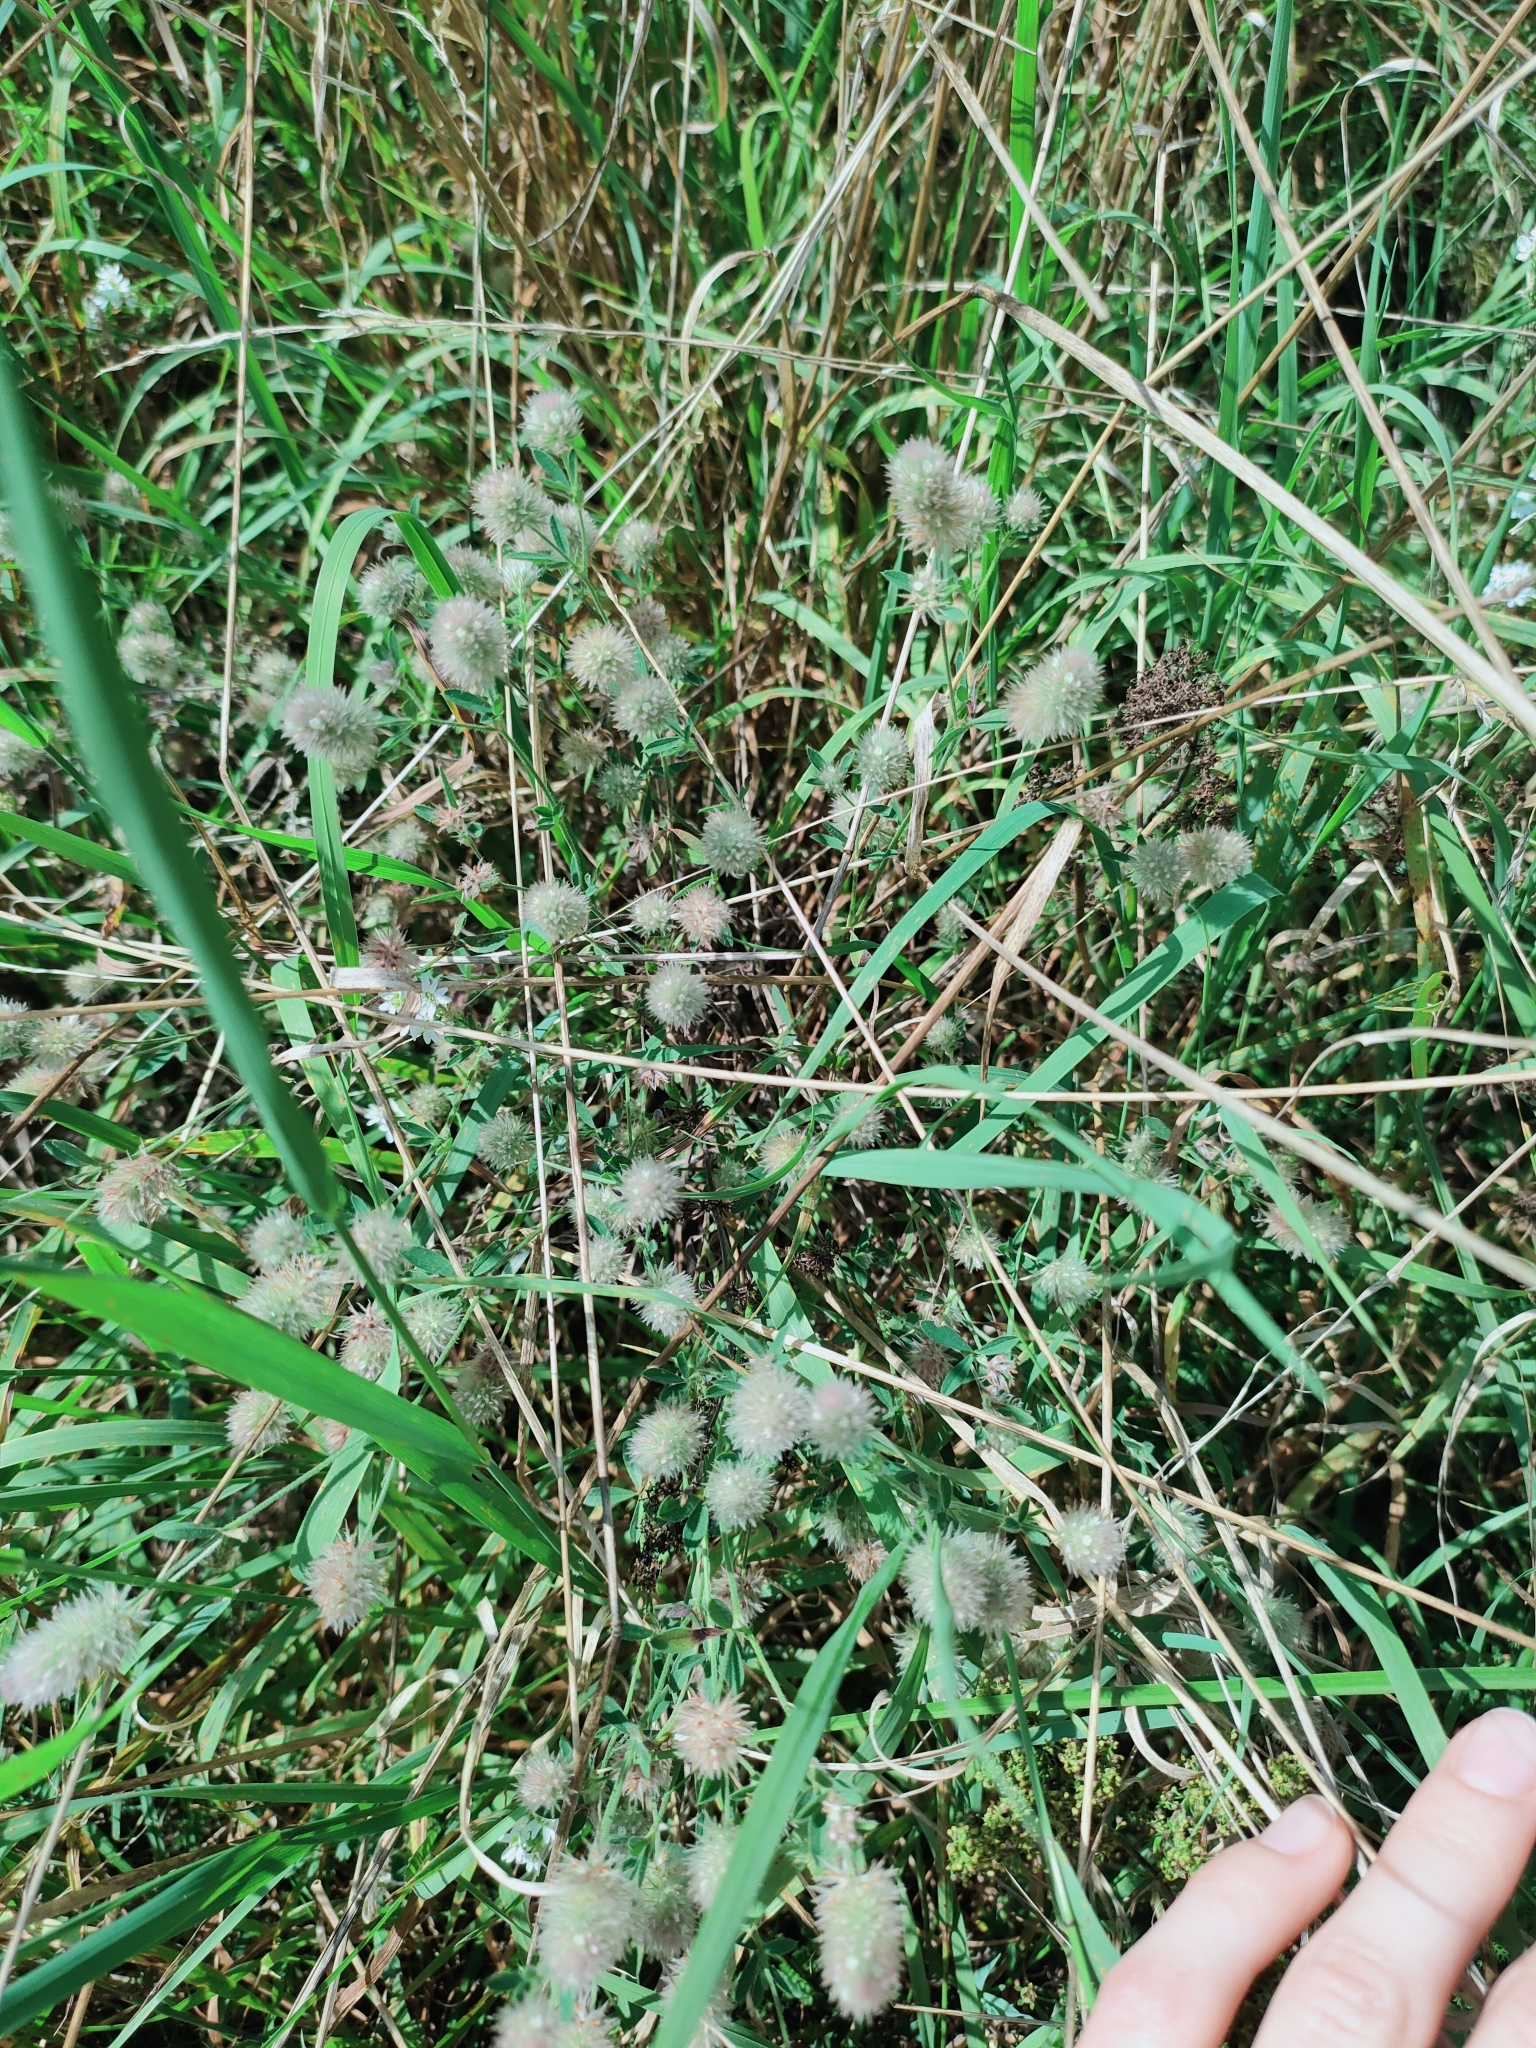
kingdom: Plantae
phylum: Tracheophyta
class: Magnoliopsida
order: Fabales
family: Fabaceae
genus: Trifolium
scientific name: Trifolium arvense
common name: Hare's-foot clover
